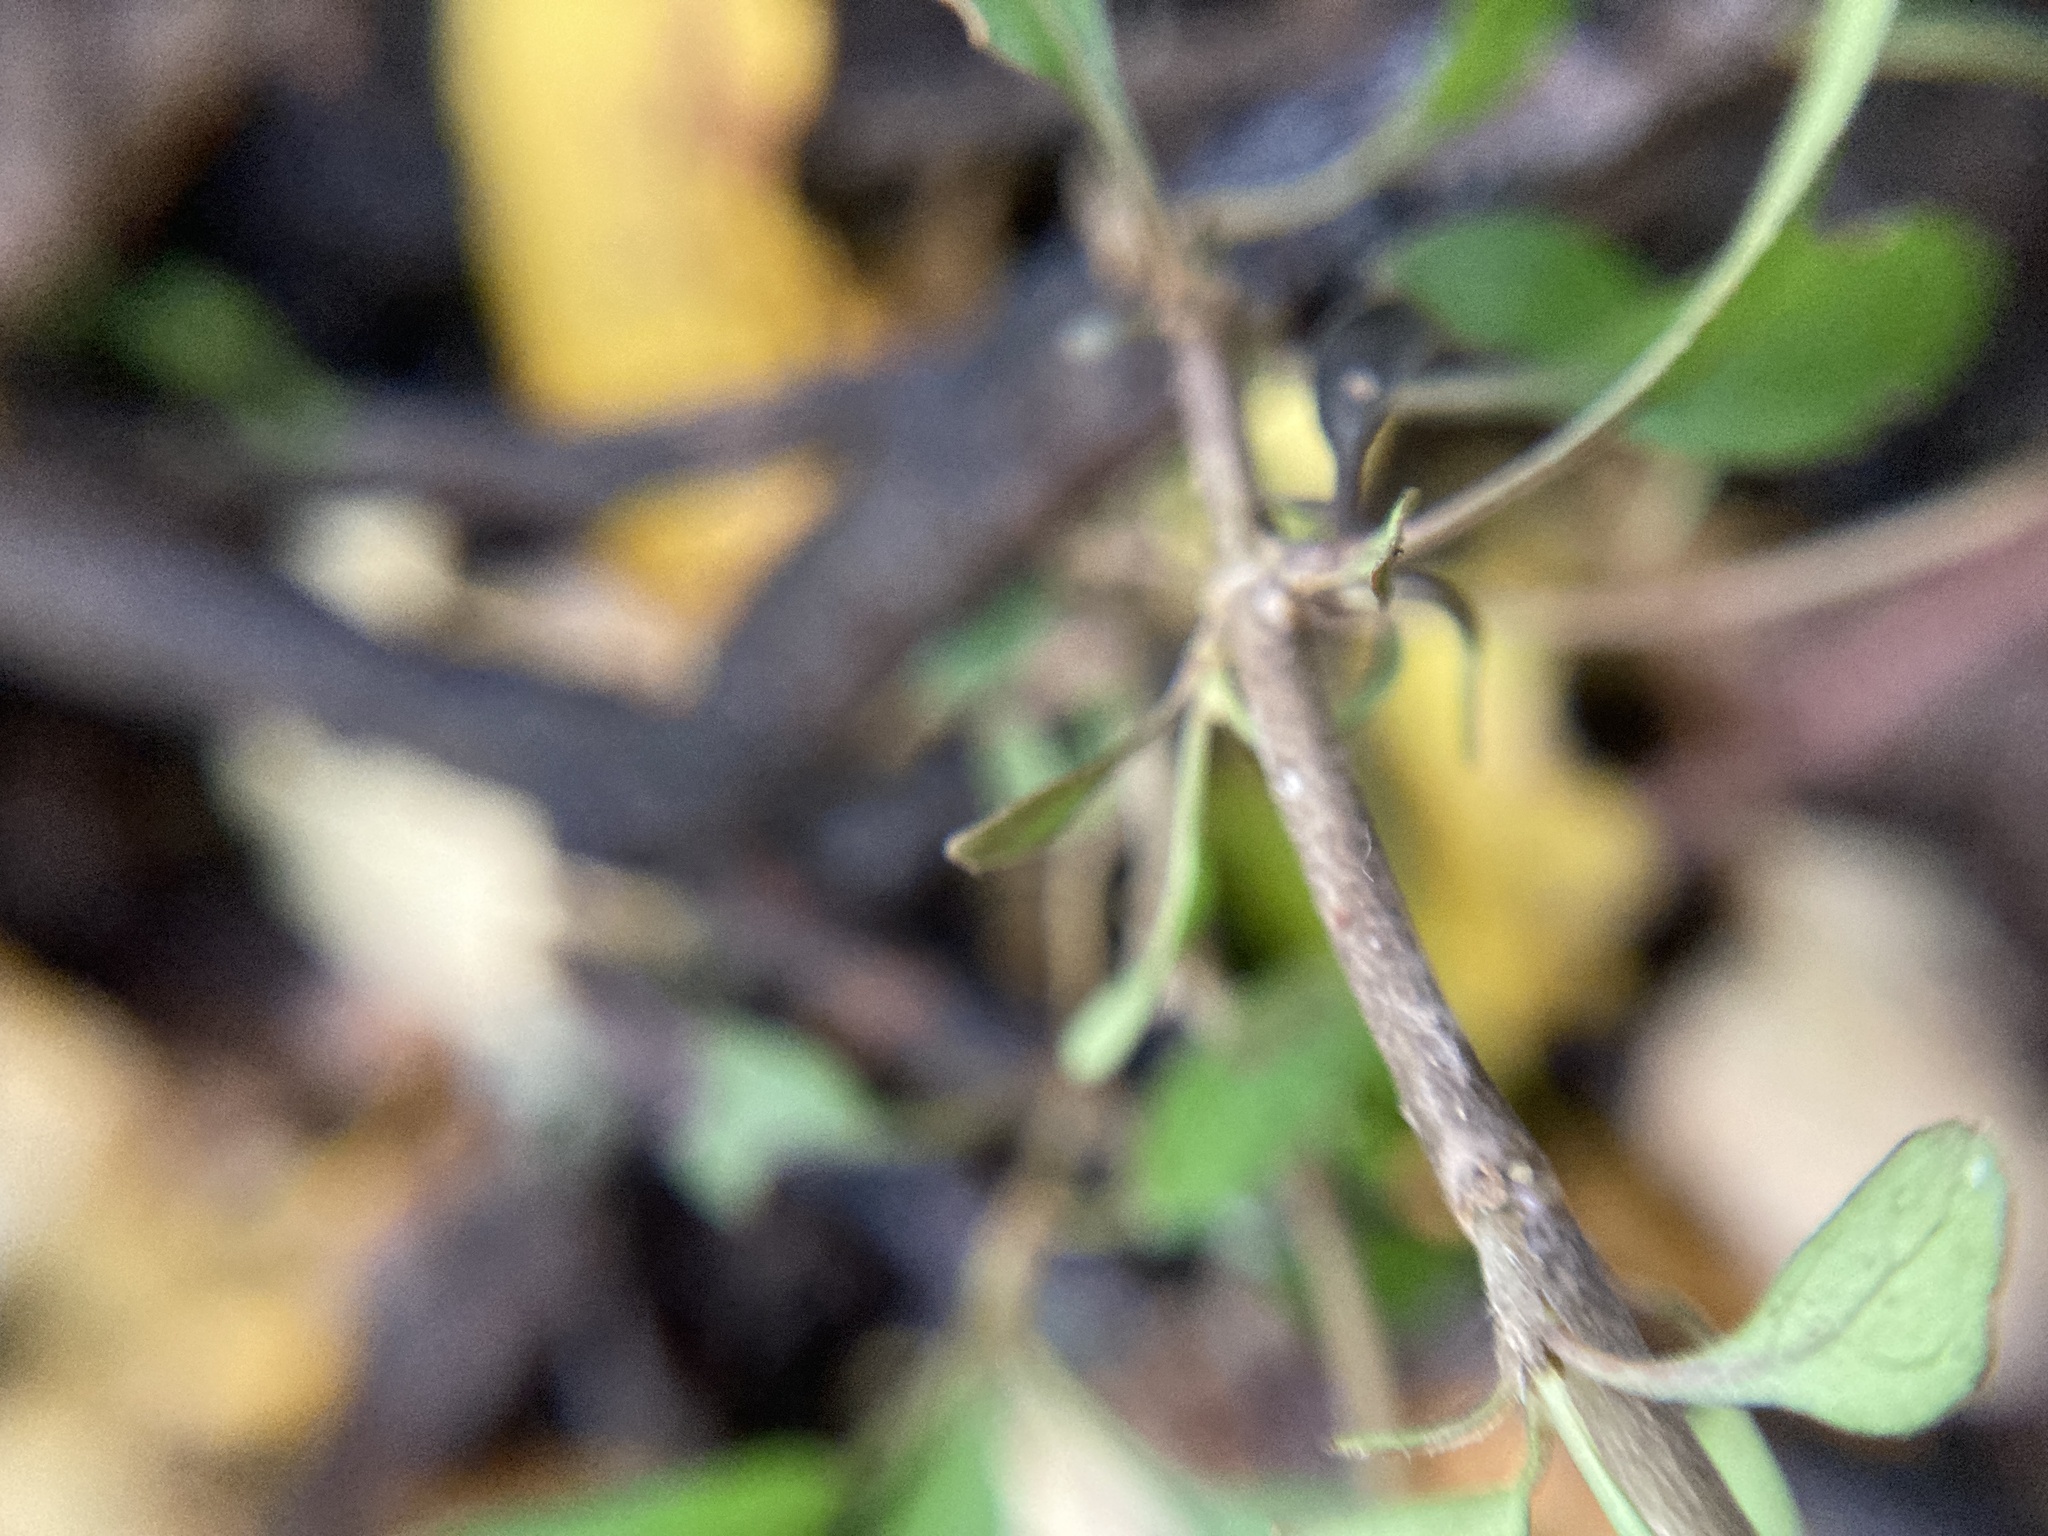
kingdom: Plantae
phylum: Tracheophyta
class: Magnoliopsida
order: Gentianales
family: Rubiaceae
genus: Coprosma
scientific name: Coprosma cunninghamii
